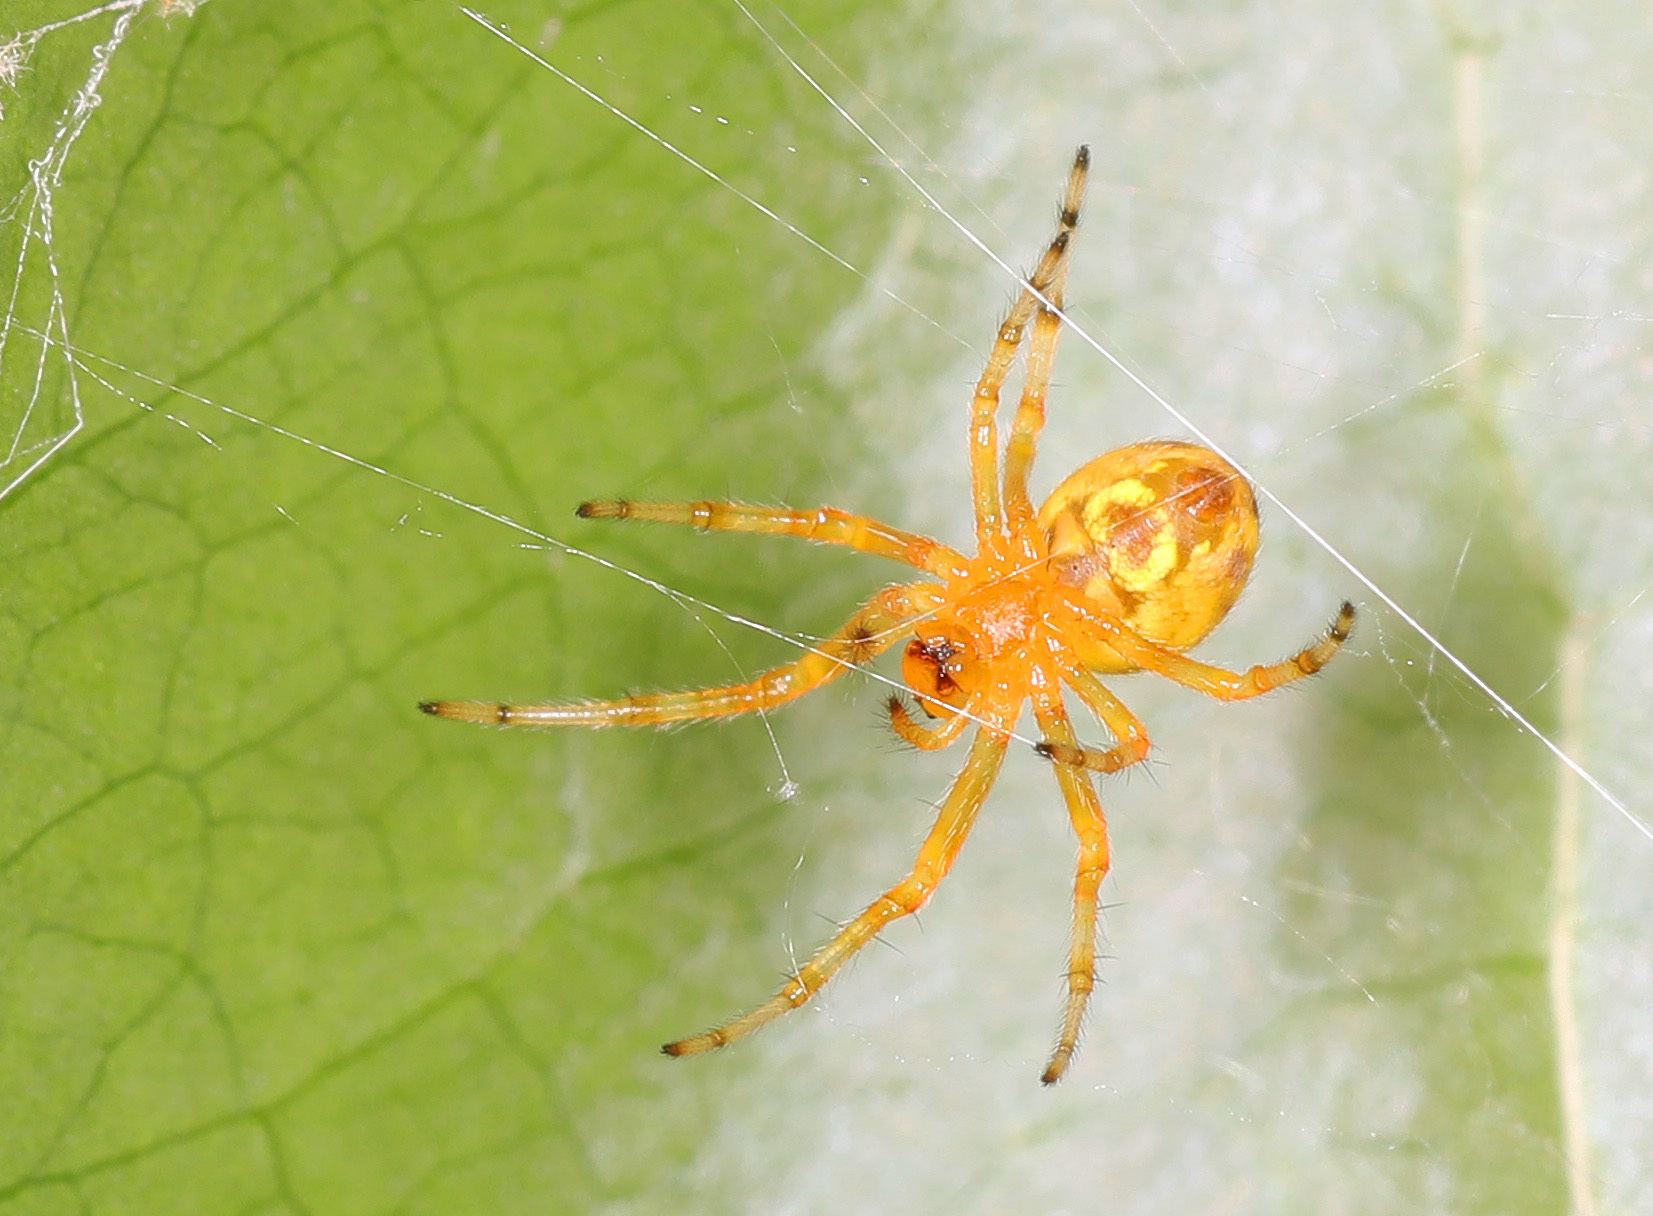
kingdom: Animalia
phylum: Arthropoda
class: Arachnida
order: Araneae
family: Araneidae
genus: Araneus
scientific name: Araneus marmoreus
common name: Marbled orbweaver
